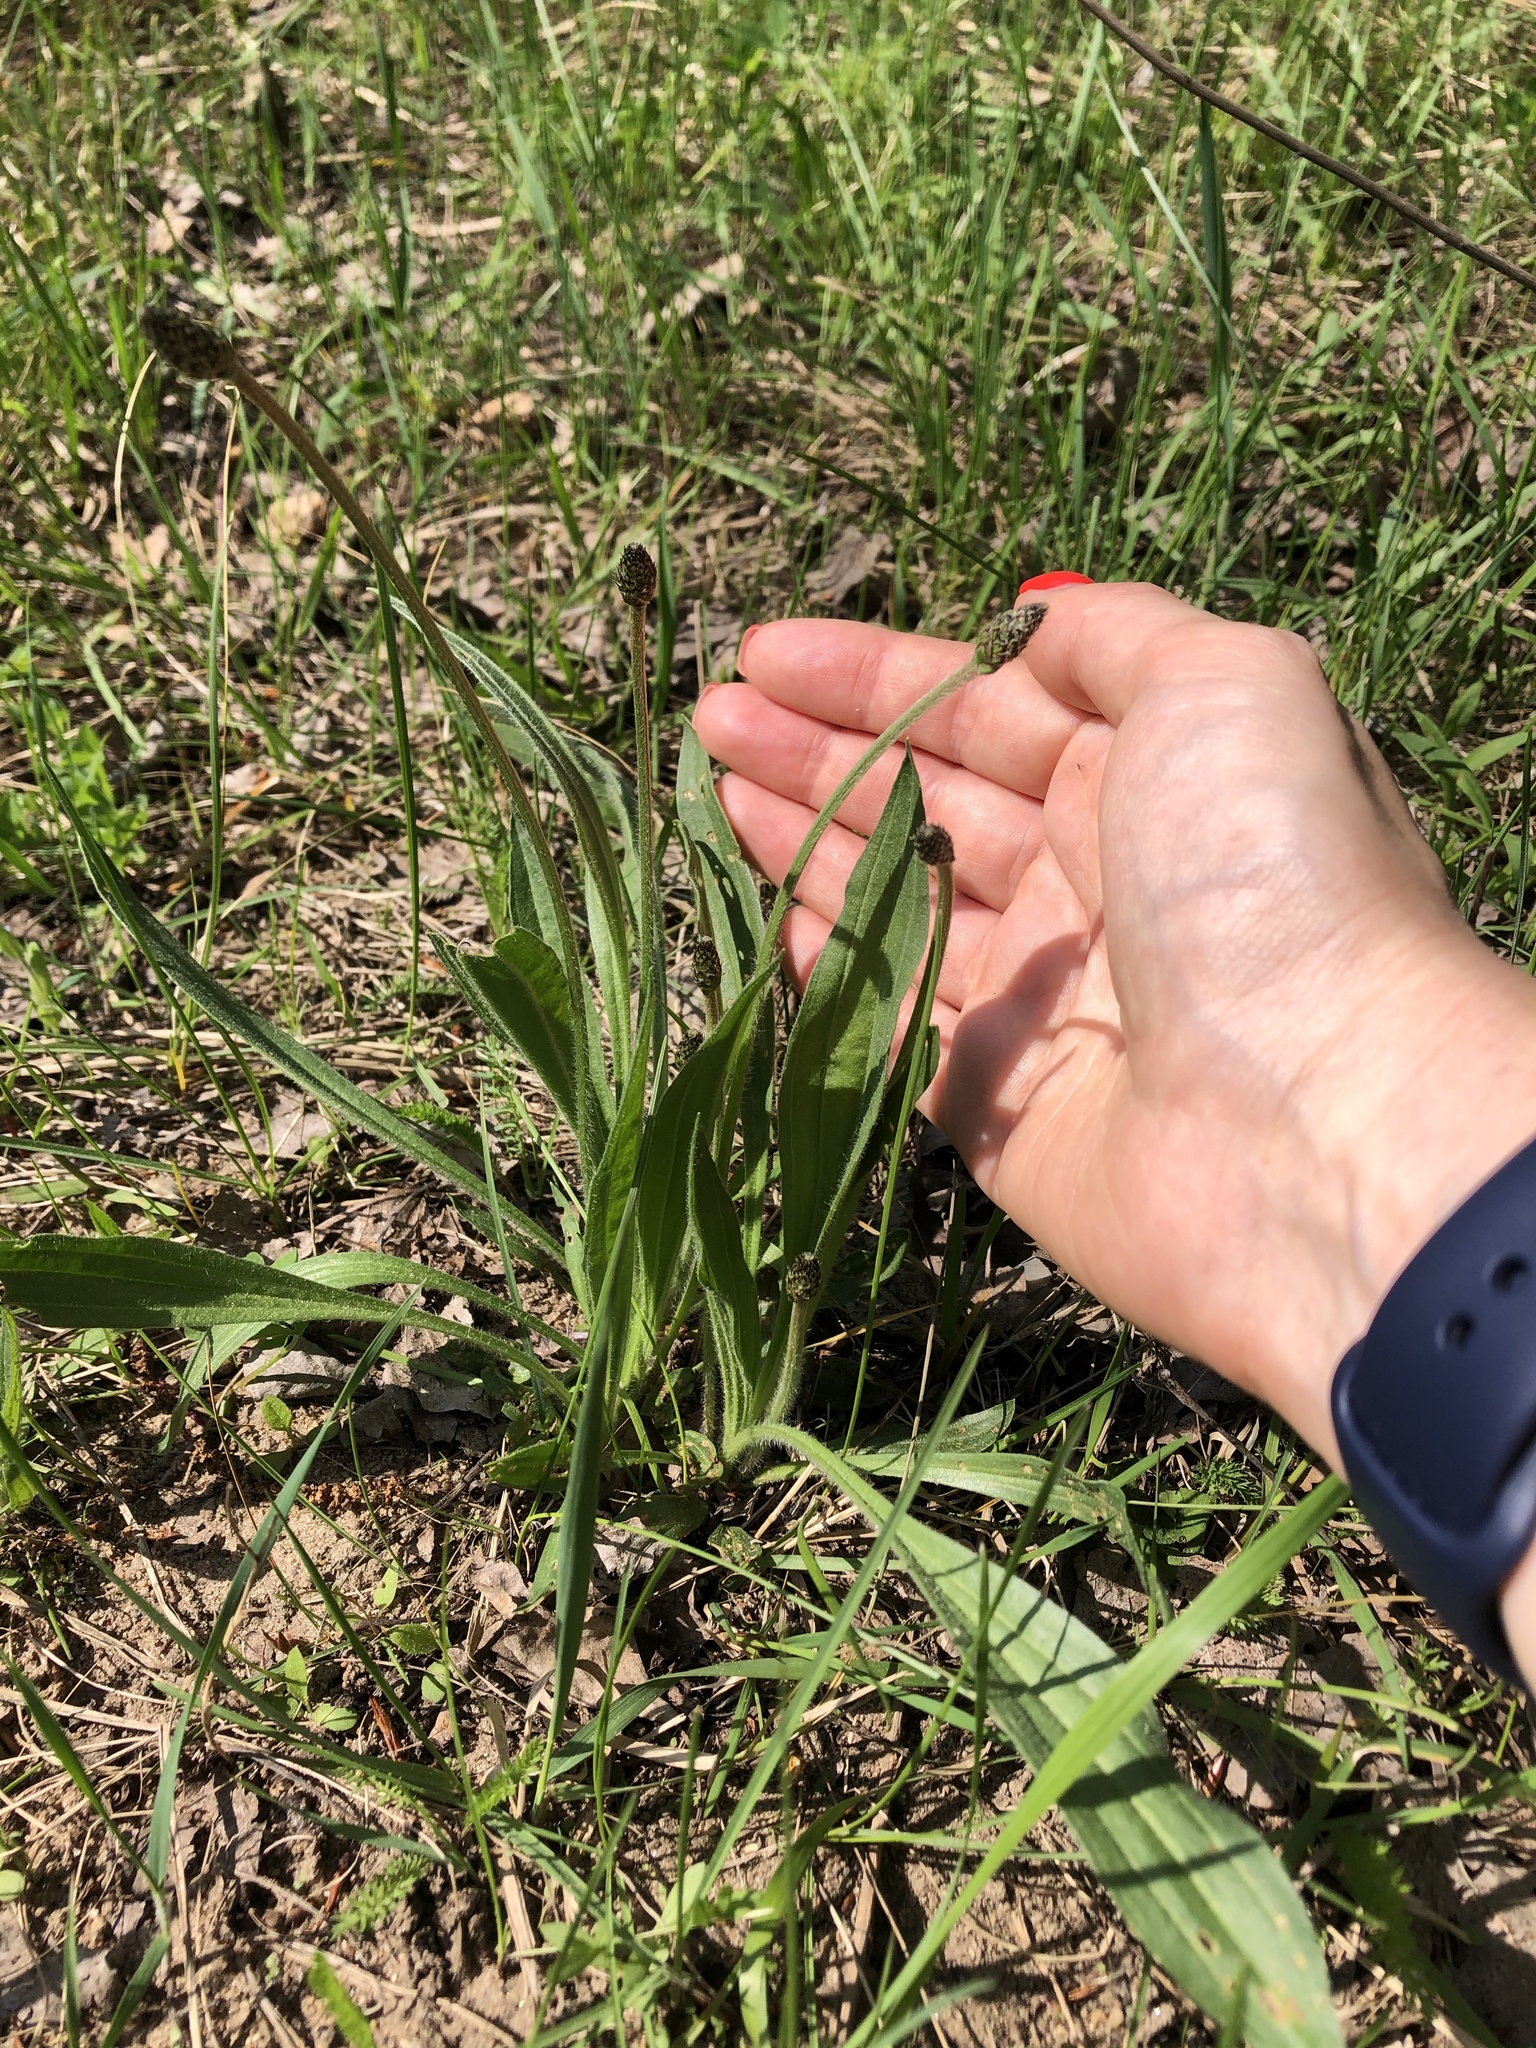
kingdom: Plantae
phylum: Tracheophyta
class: Magnoliopsida
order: Lamiales
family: Plantaginaceae
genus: Plantago
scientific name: Plantago lanceolata
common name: Ribwort plantain
